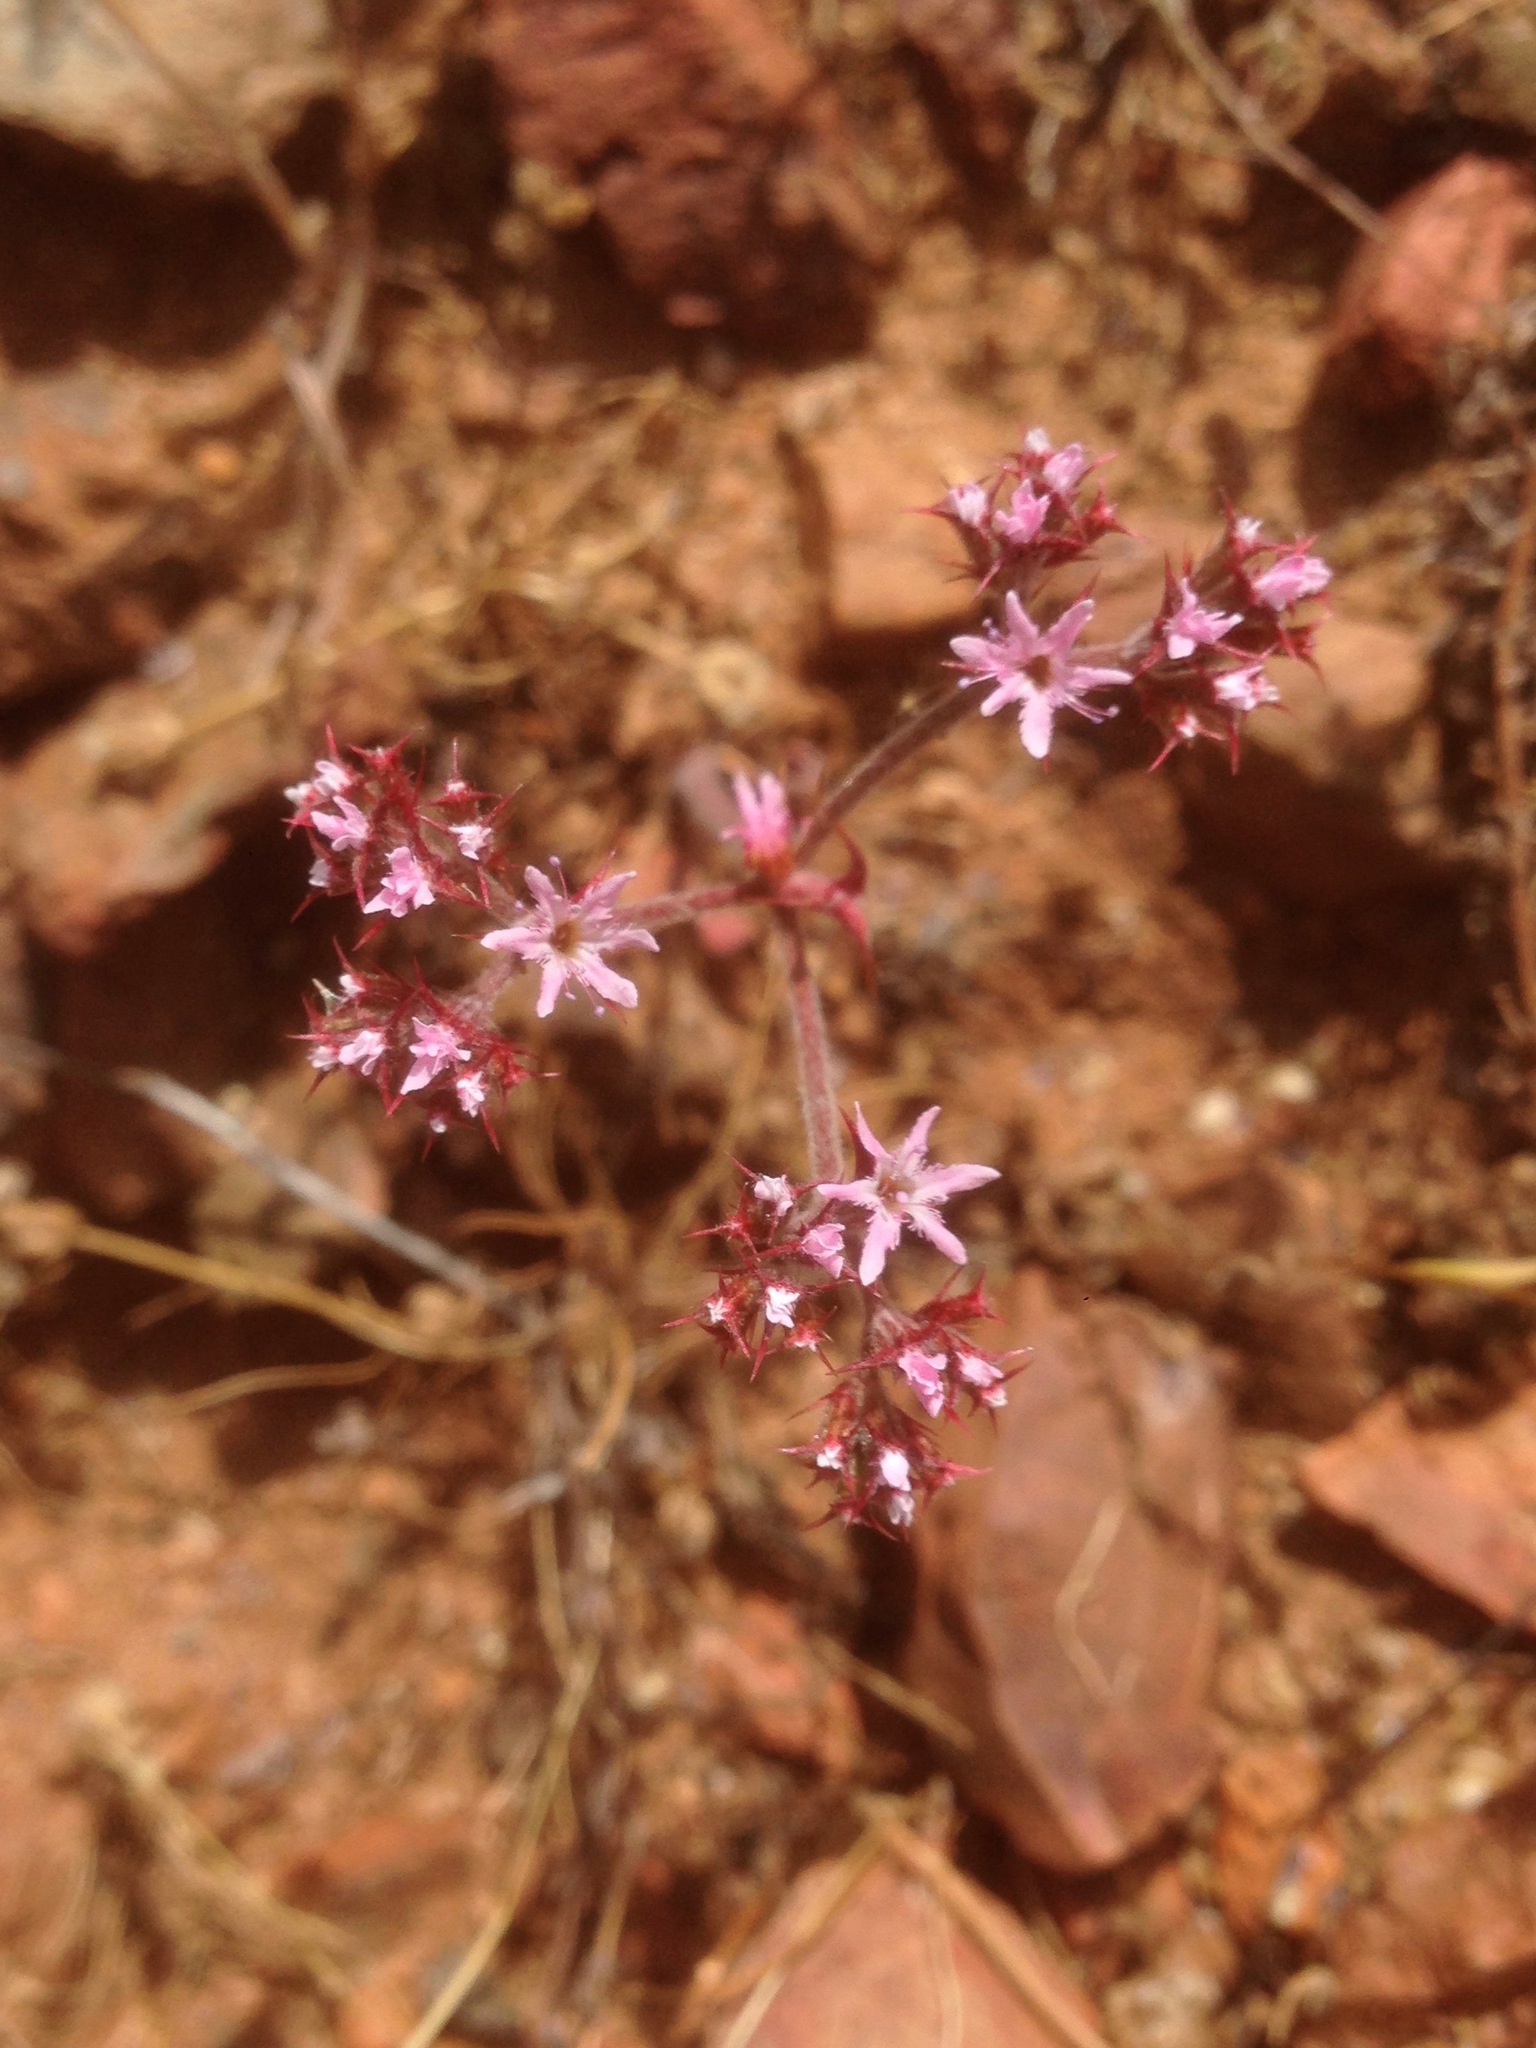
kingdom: Plantae
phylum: Tracheophyta
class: Magnoliopsida
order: Caryophyllales
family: Polygonaceae
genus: Chorizanthe
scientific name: Chorizanthe fimbriata
